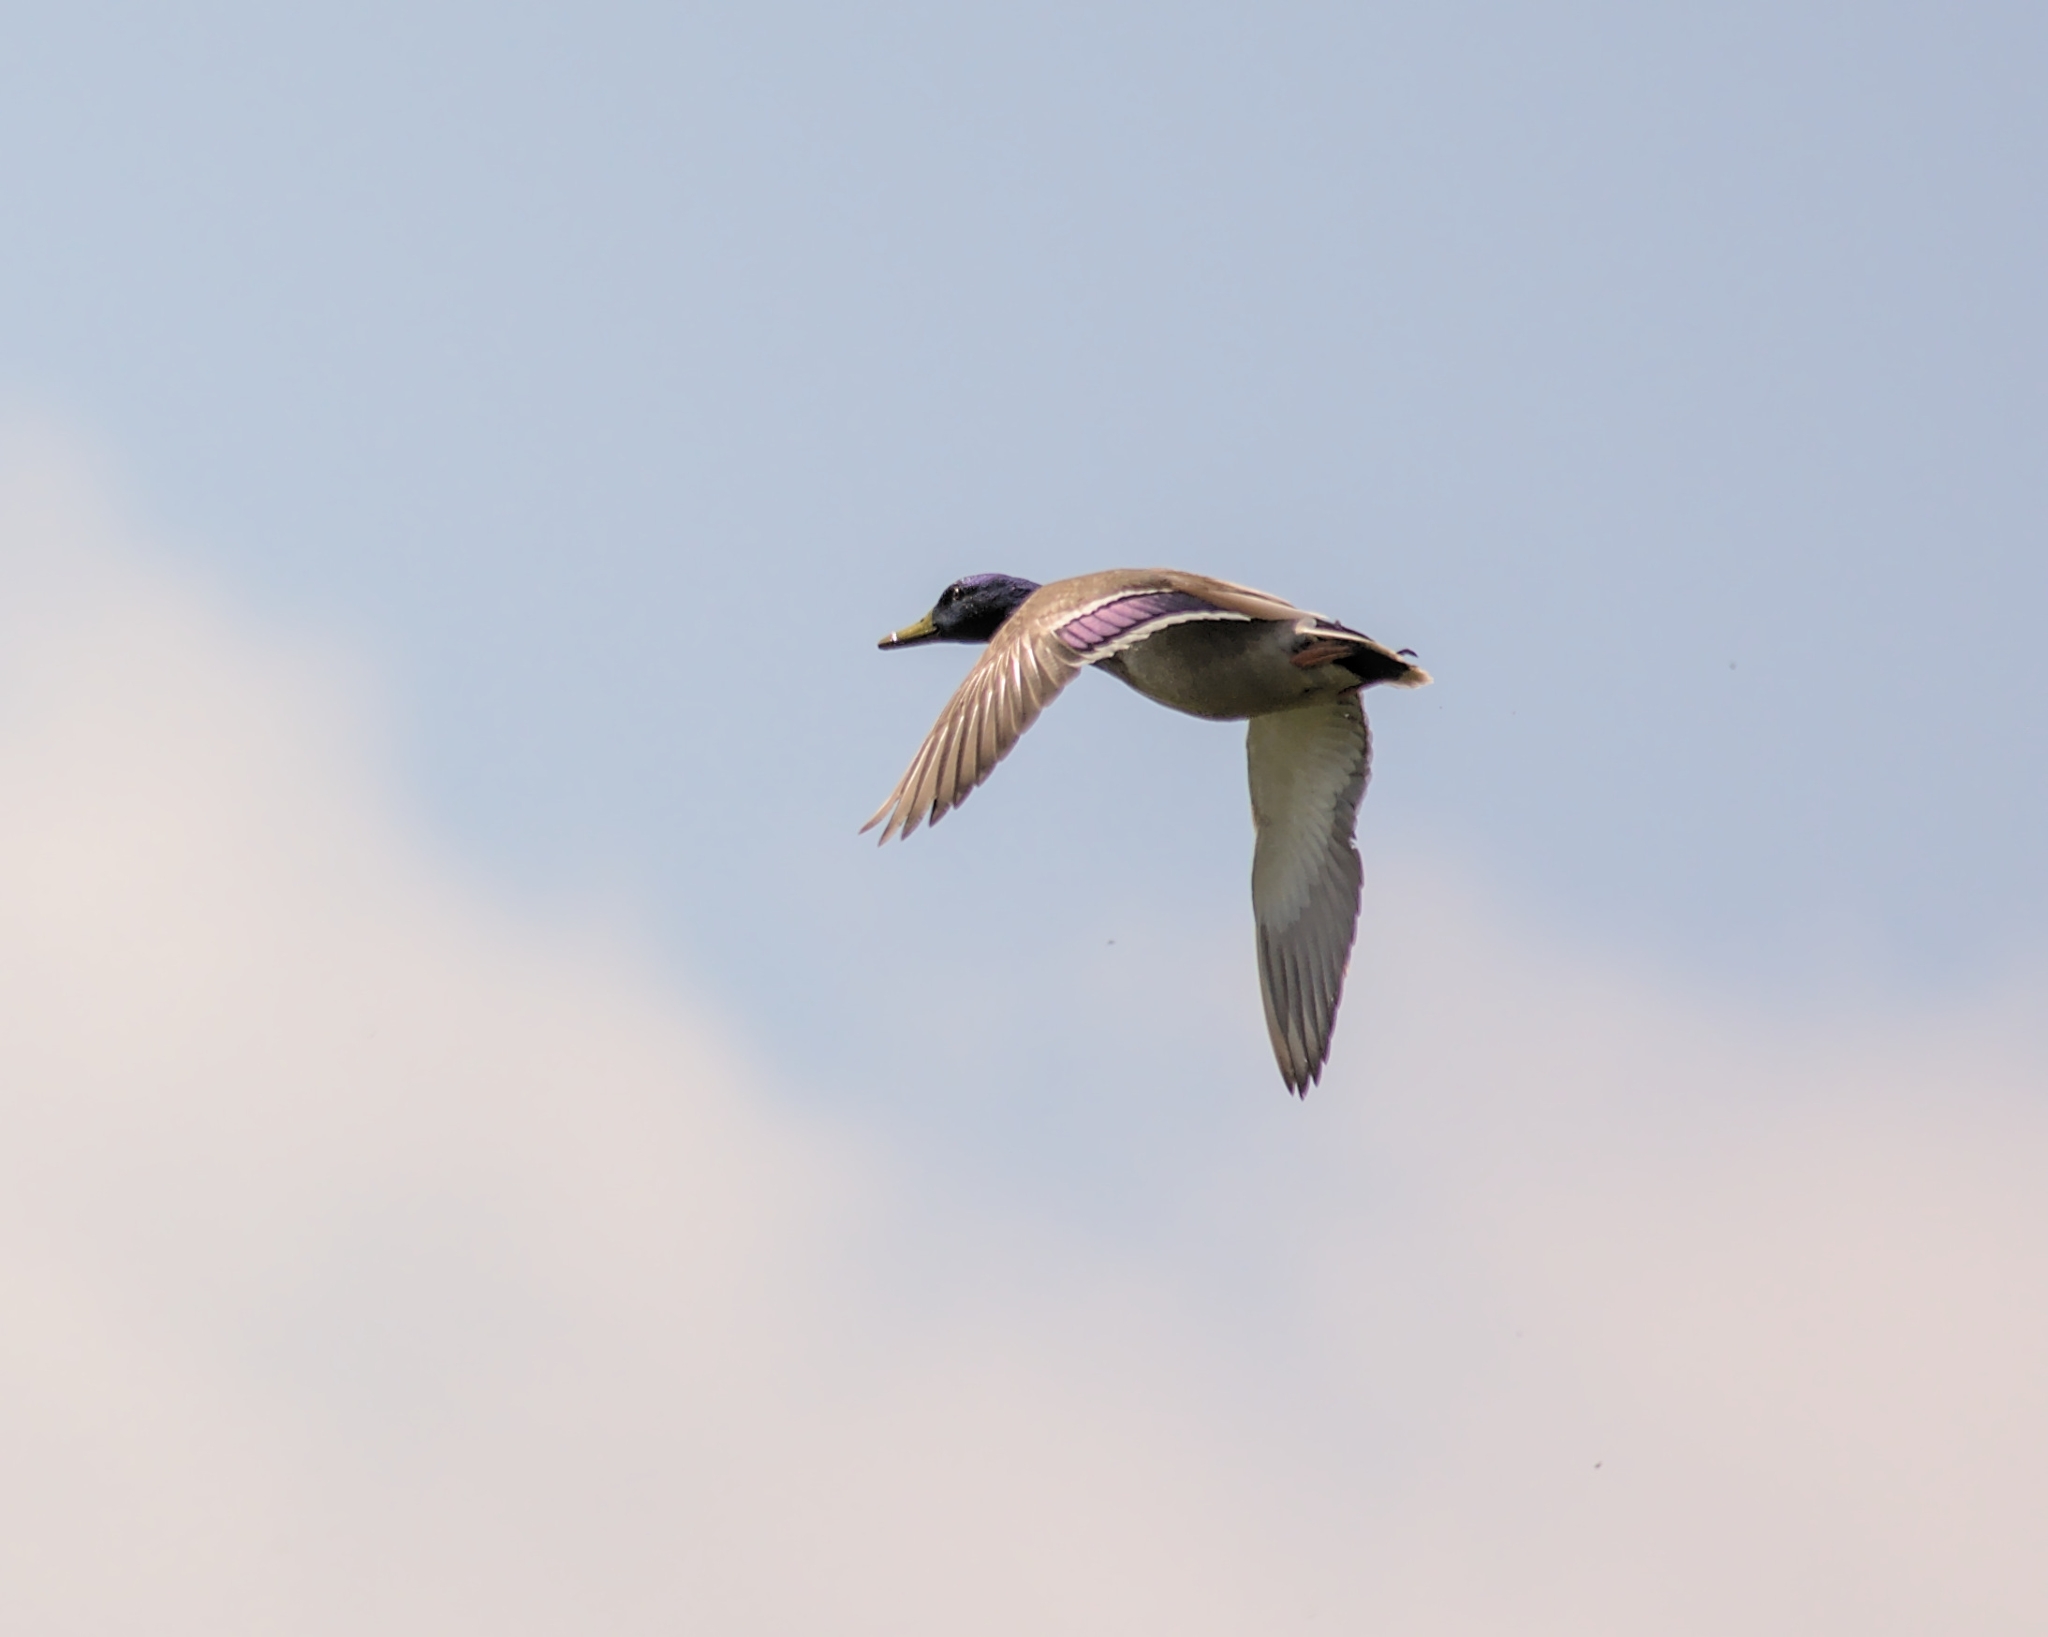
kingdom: Animalia
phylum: Chordata
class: Aves
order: Anseriformes
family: Anatidae
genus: Anas
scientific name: Anas platyrhynchos
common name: Mallard
